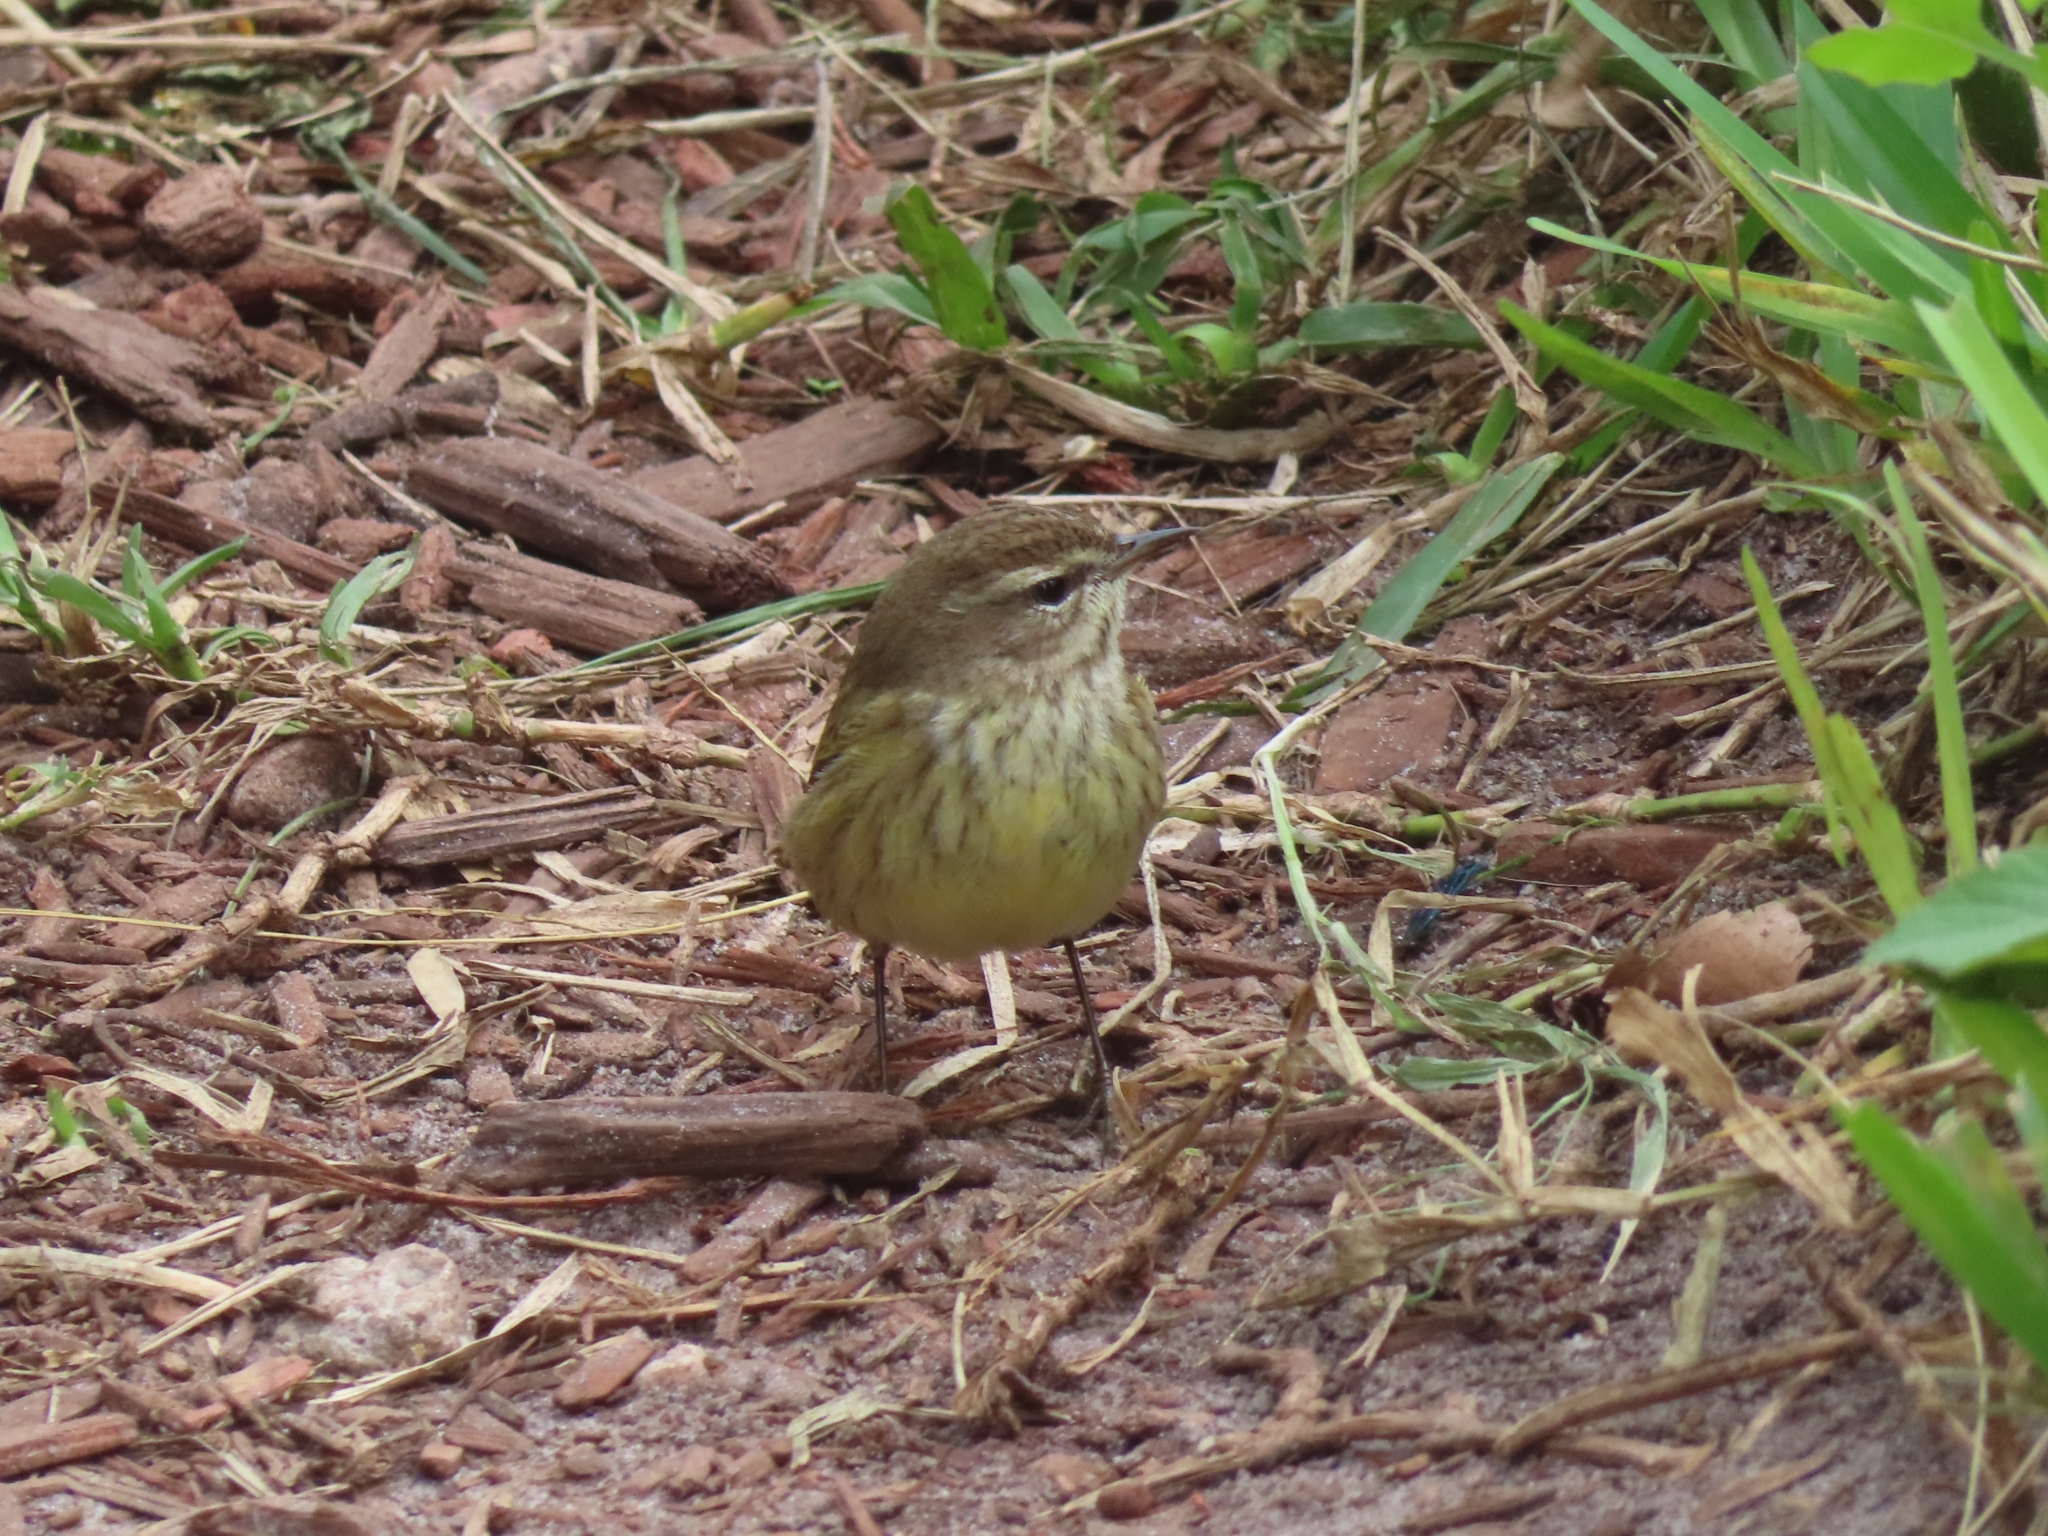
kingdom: Animalia
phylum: Chordata
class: Aves
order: Passeriformes
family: Parulidae
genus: Setophaga
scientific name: Setophaga palmarum
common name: Palm warbler
